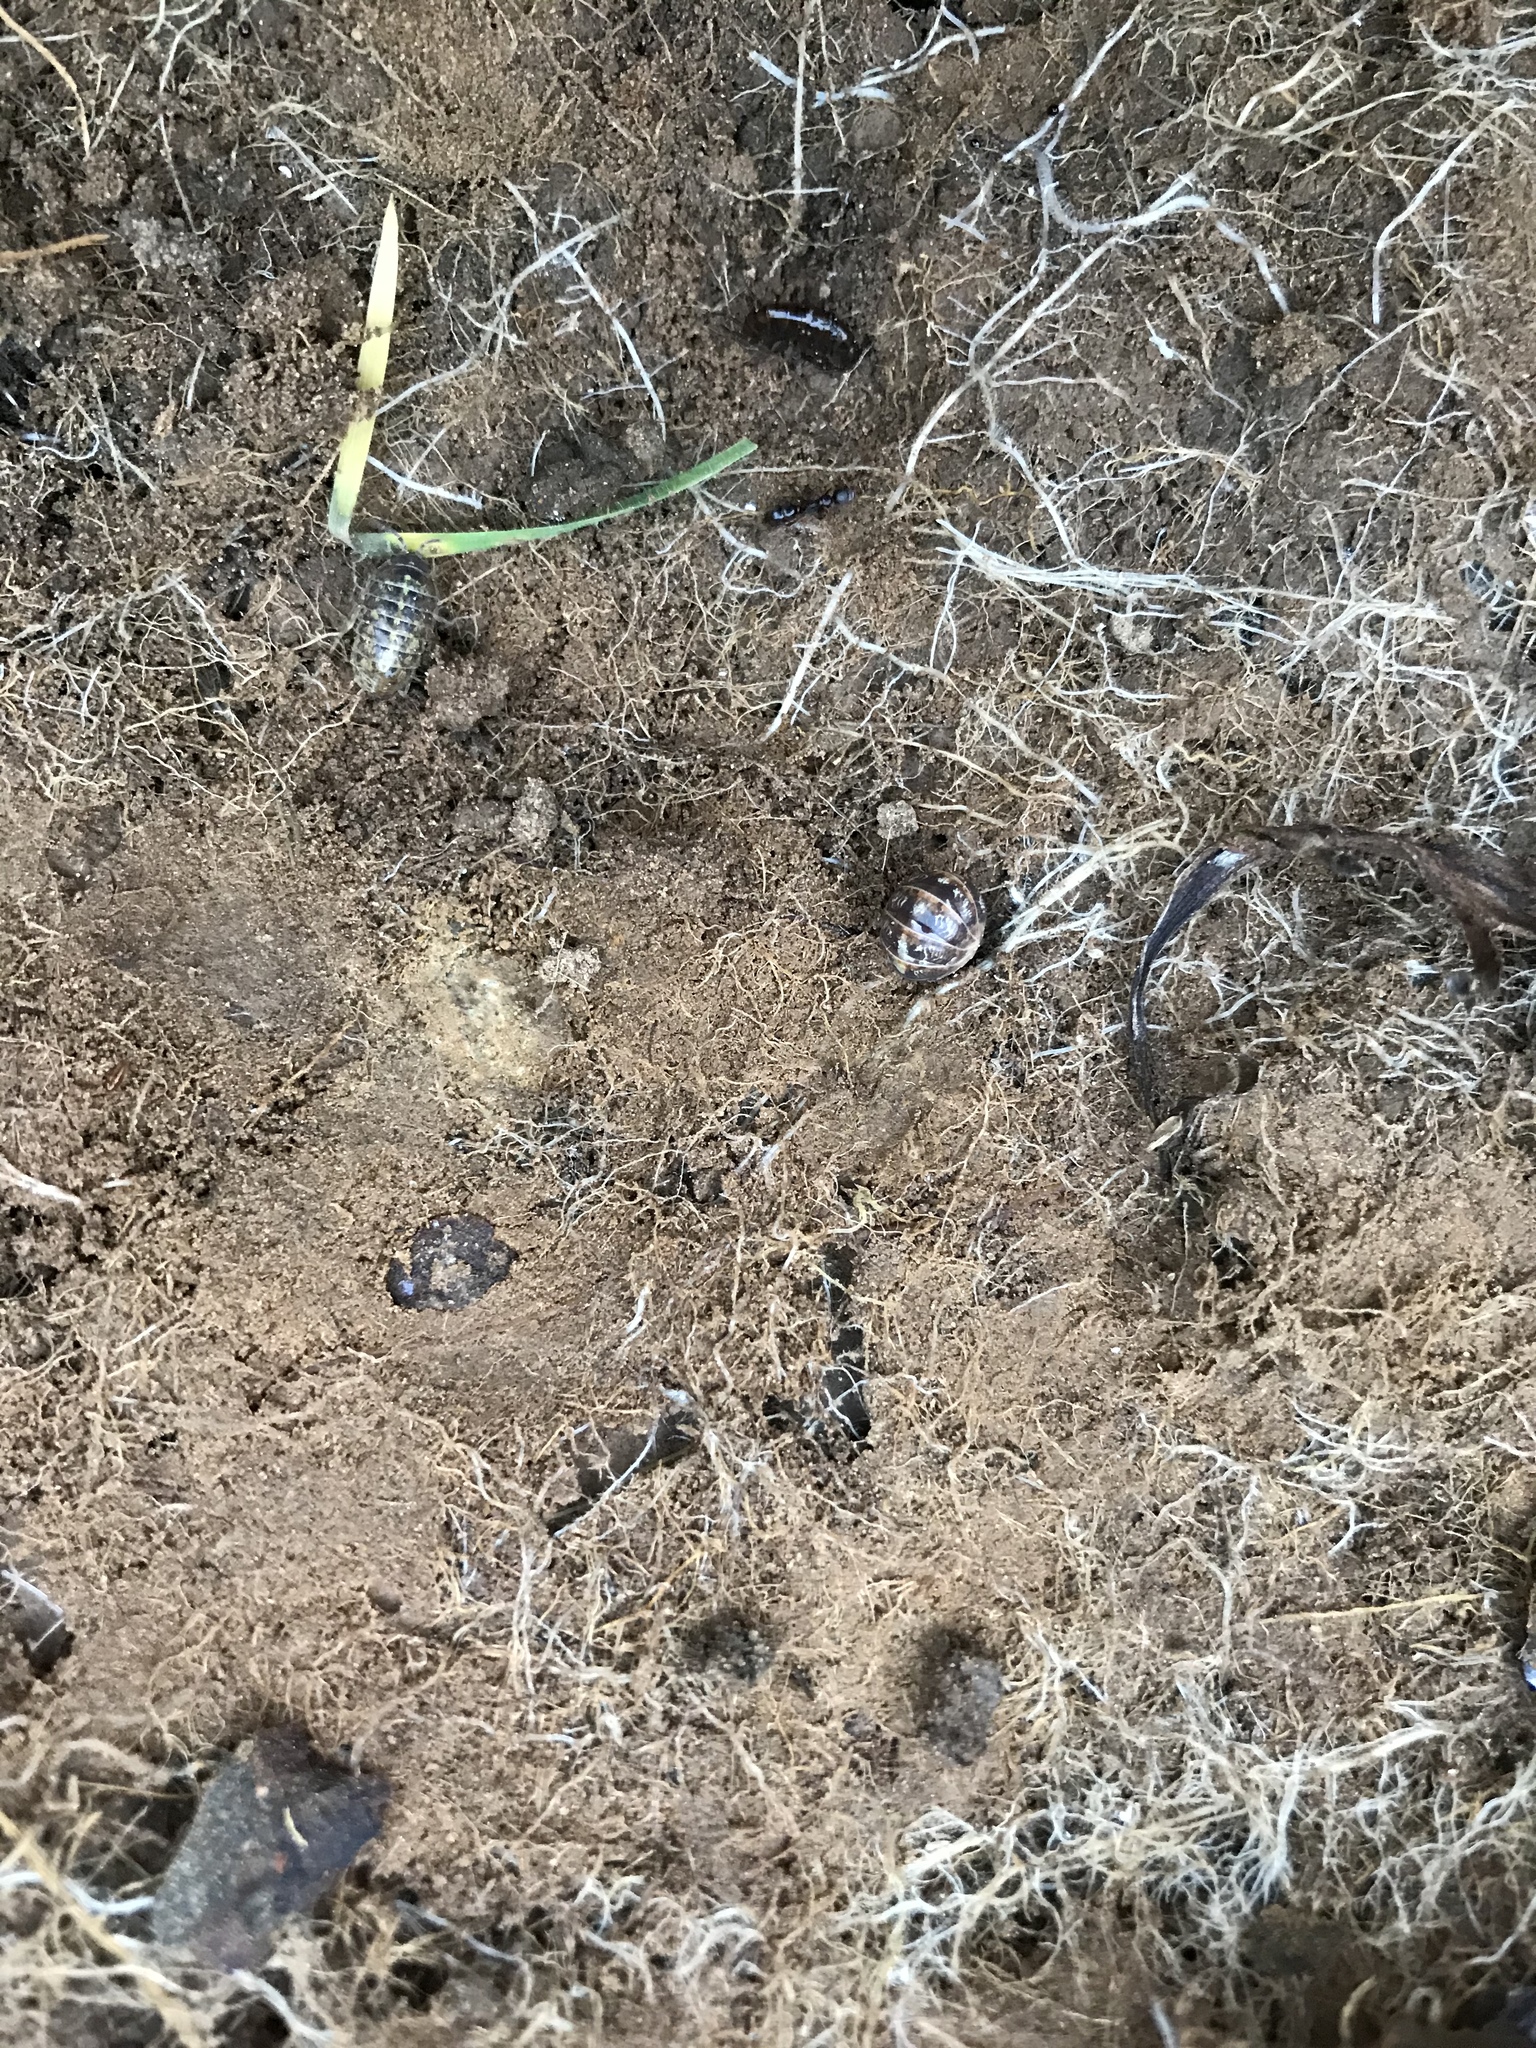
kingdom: Animalia
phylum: Arthropoda
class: Malacostraca
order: Isopoda
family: Armadillidiidae
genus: Armadillidium
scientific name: Armadillidium vulgare
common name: Common pill woodlouse
